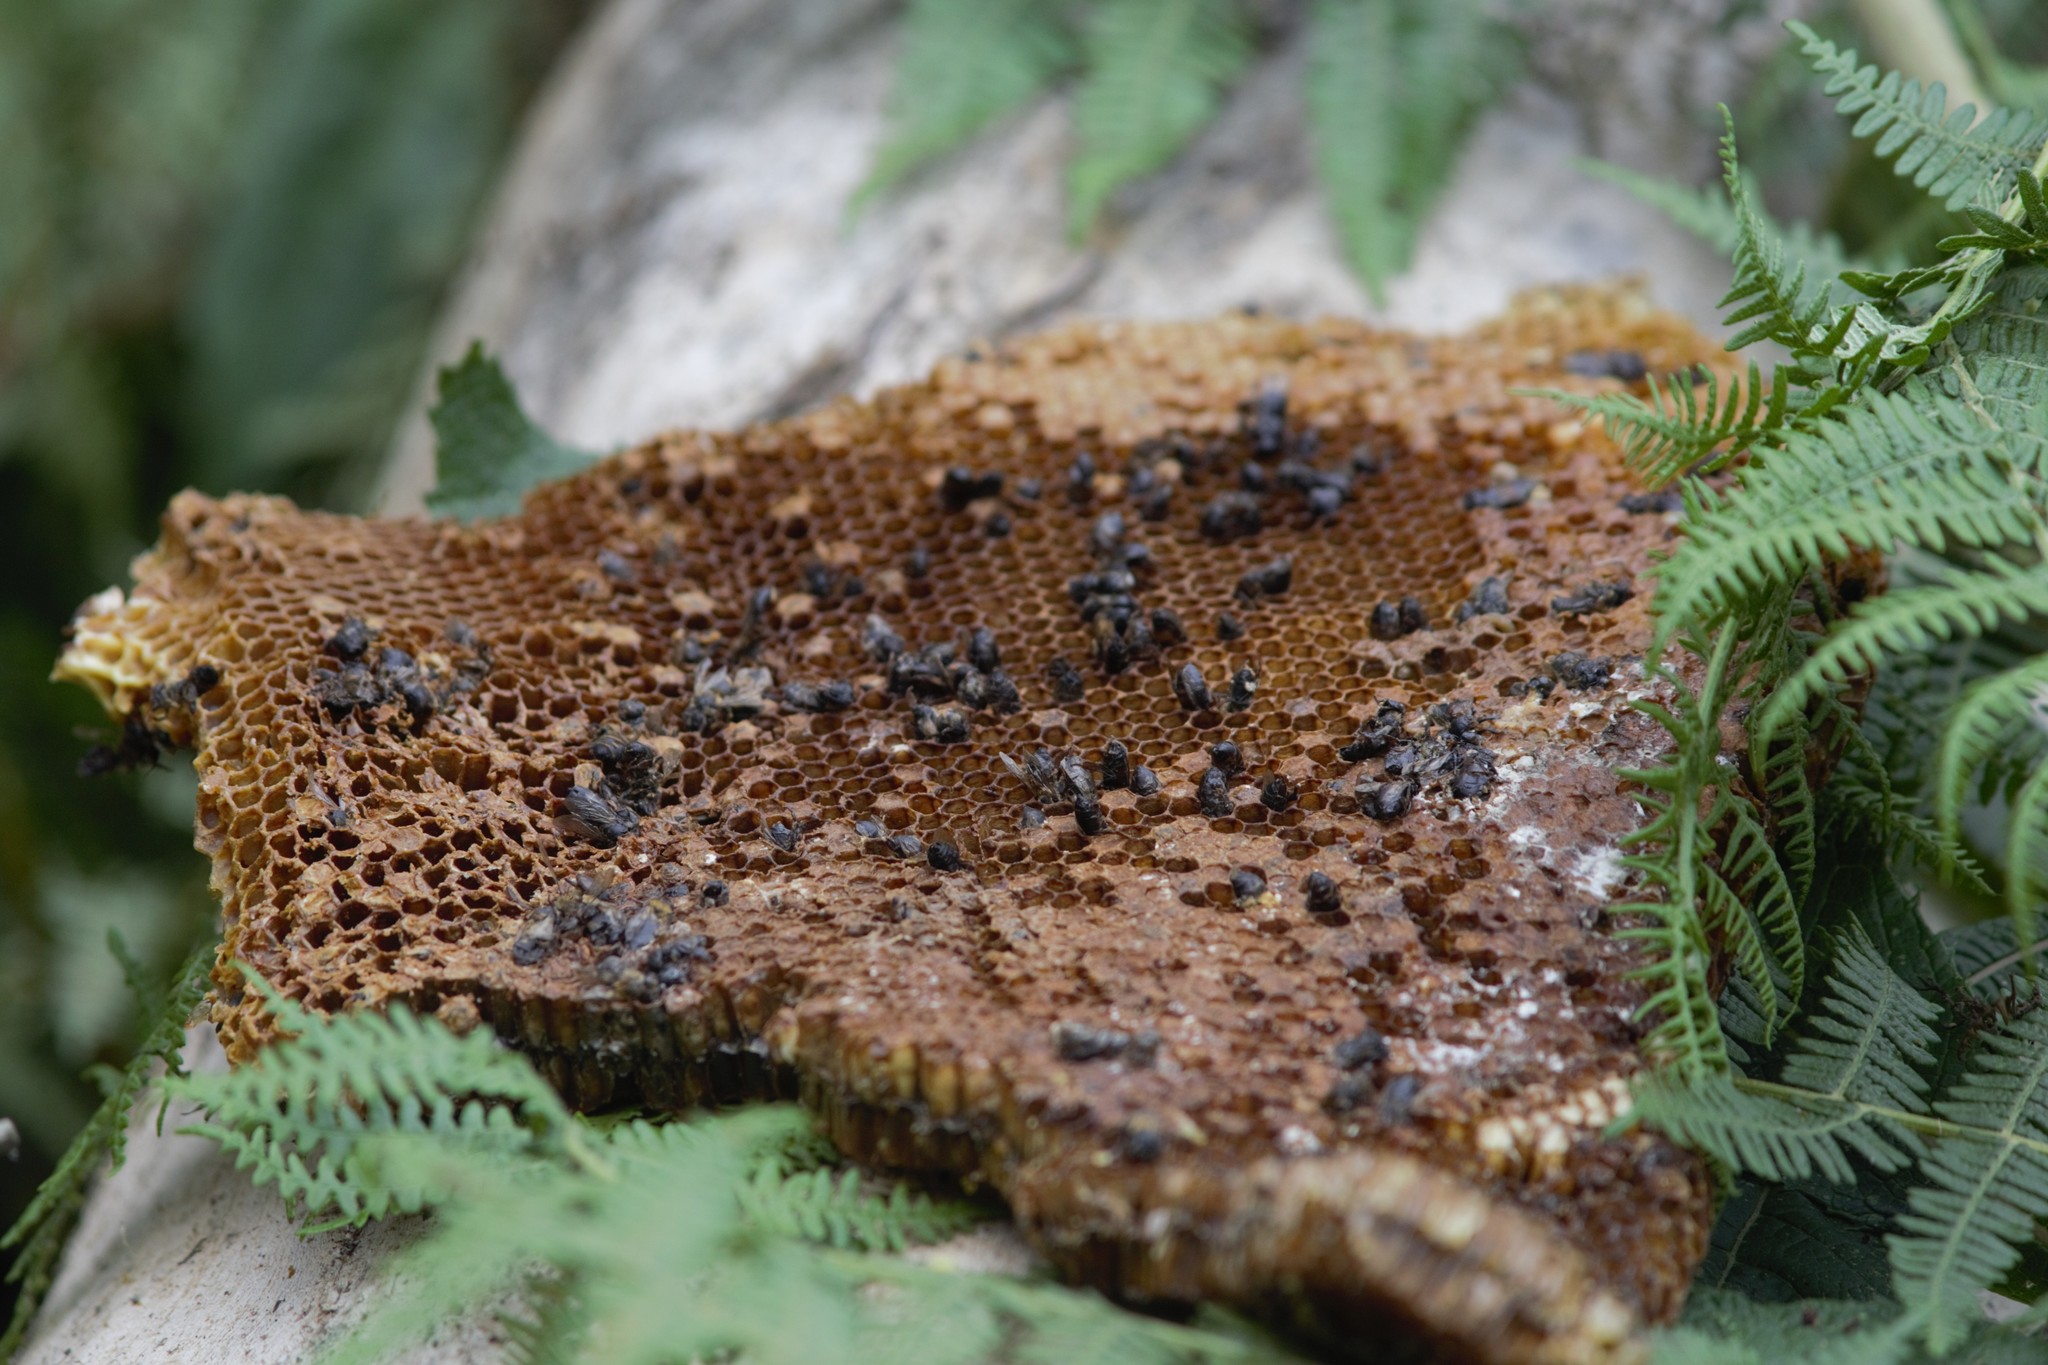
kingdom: Animalia
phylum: Arthropoda
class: Insecta
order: Hymenoptera
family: Apidae
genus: Apis
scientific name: Apis mellifera
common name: Honey bee
